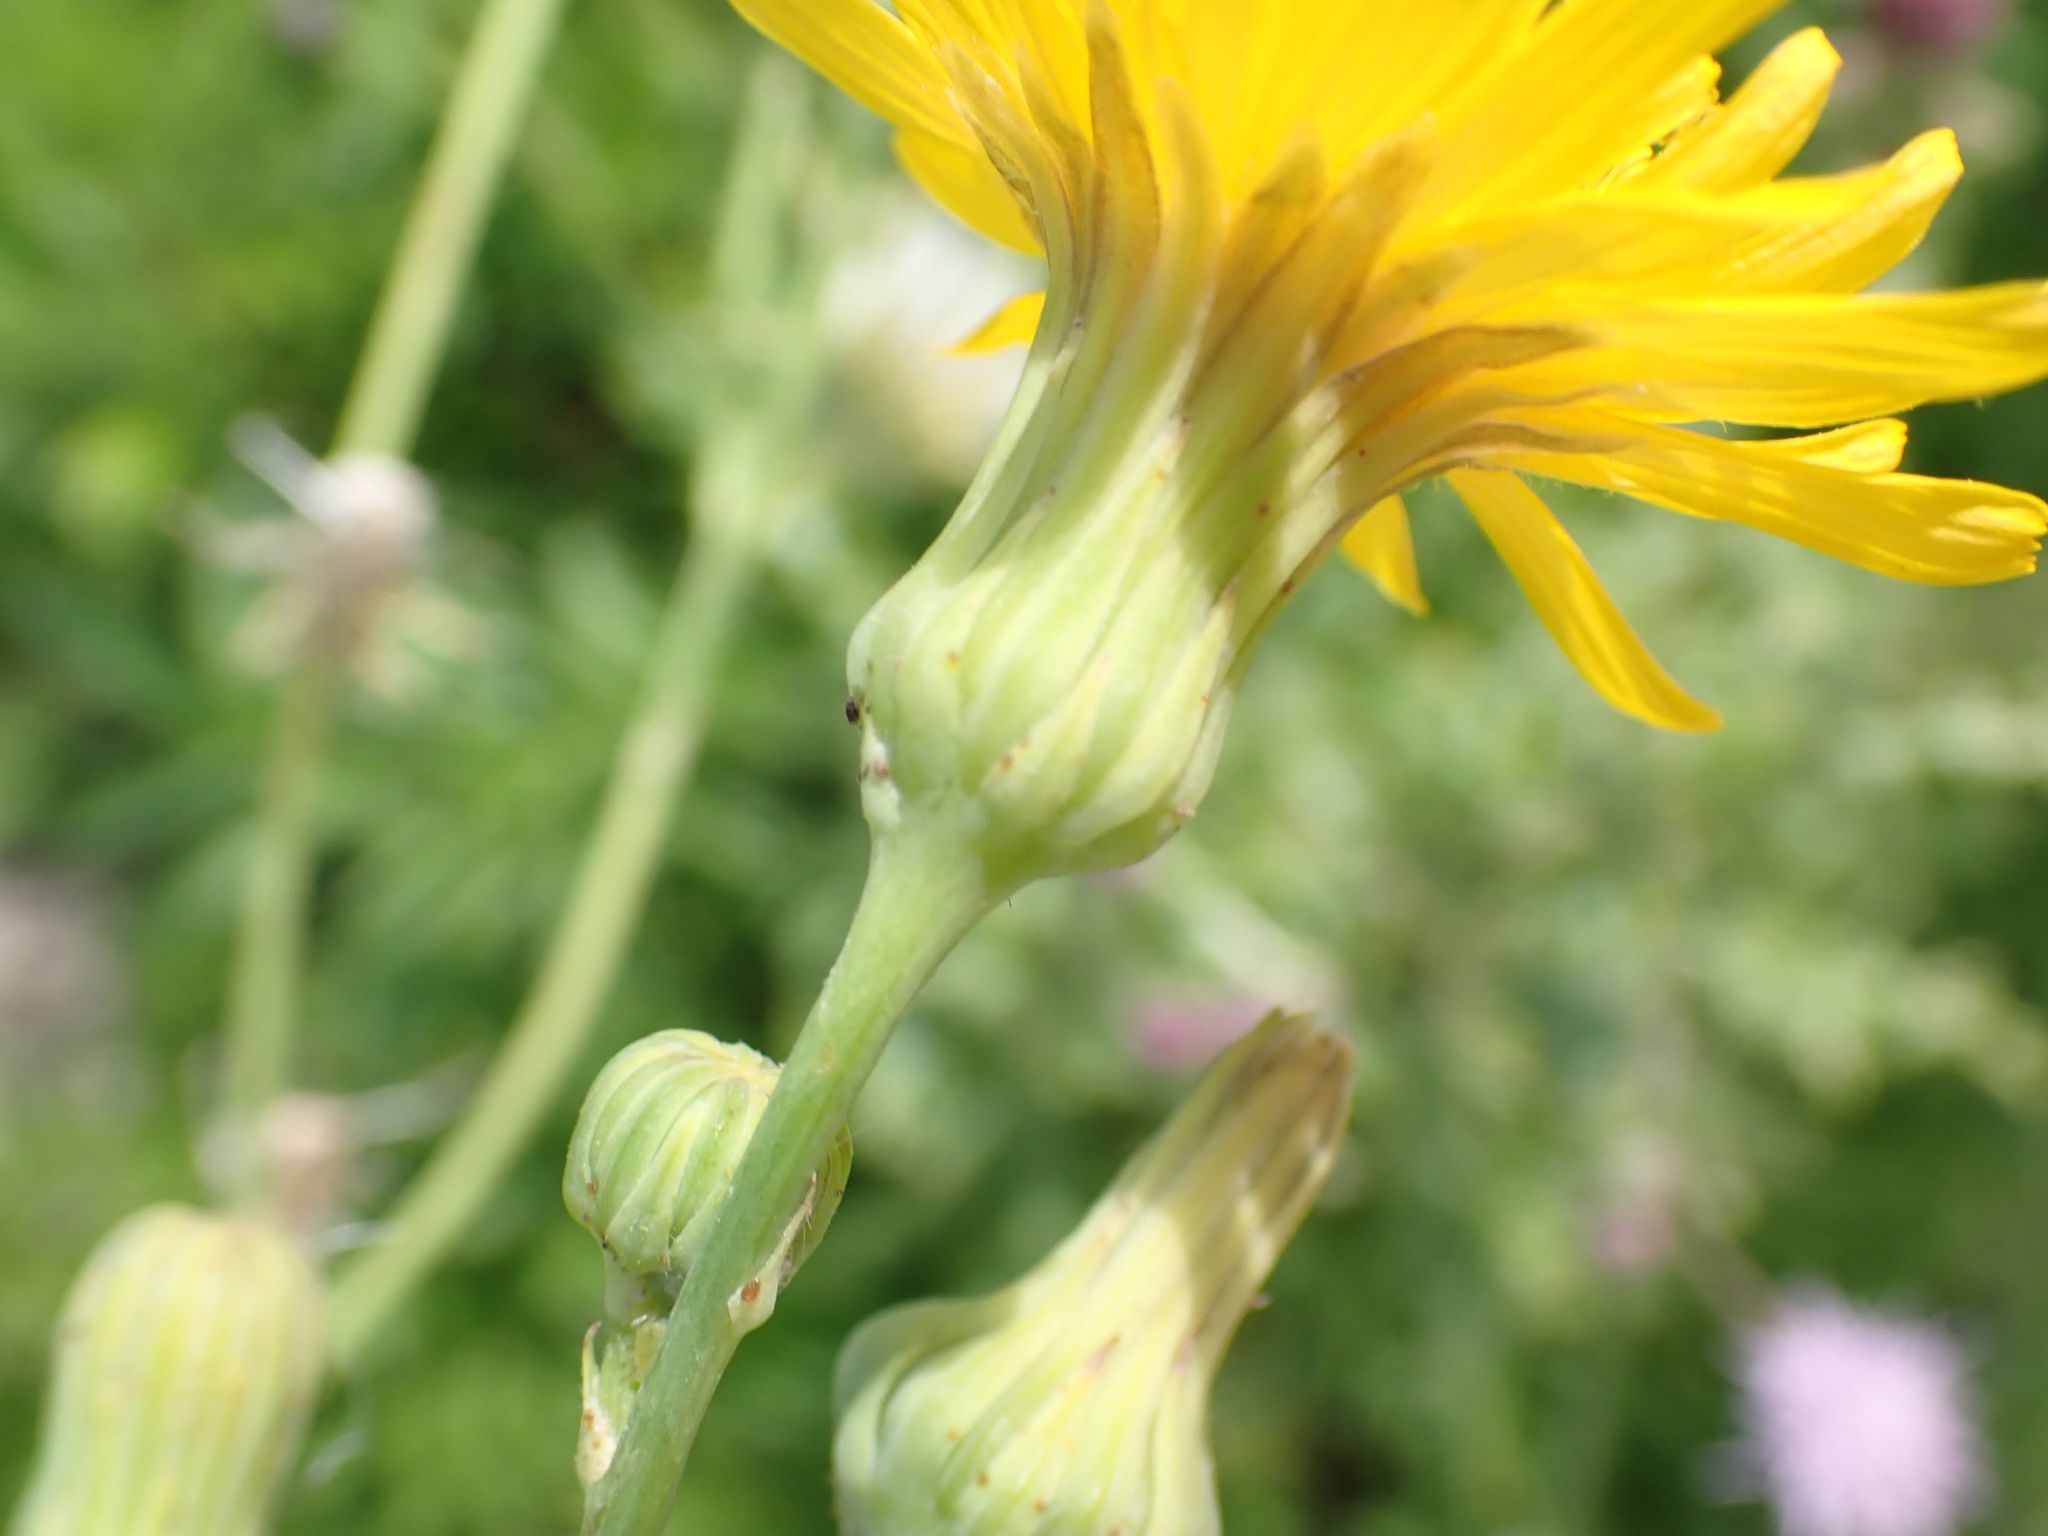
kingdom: Plantae
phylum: Tracheophyta
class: Magnoliopsida
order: Asterales
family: Asteraceae
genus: Sonchus
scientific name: Sonchus arvensis
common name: Perennial sow-thistle
